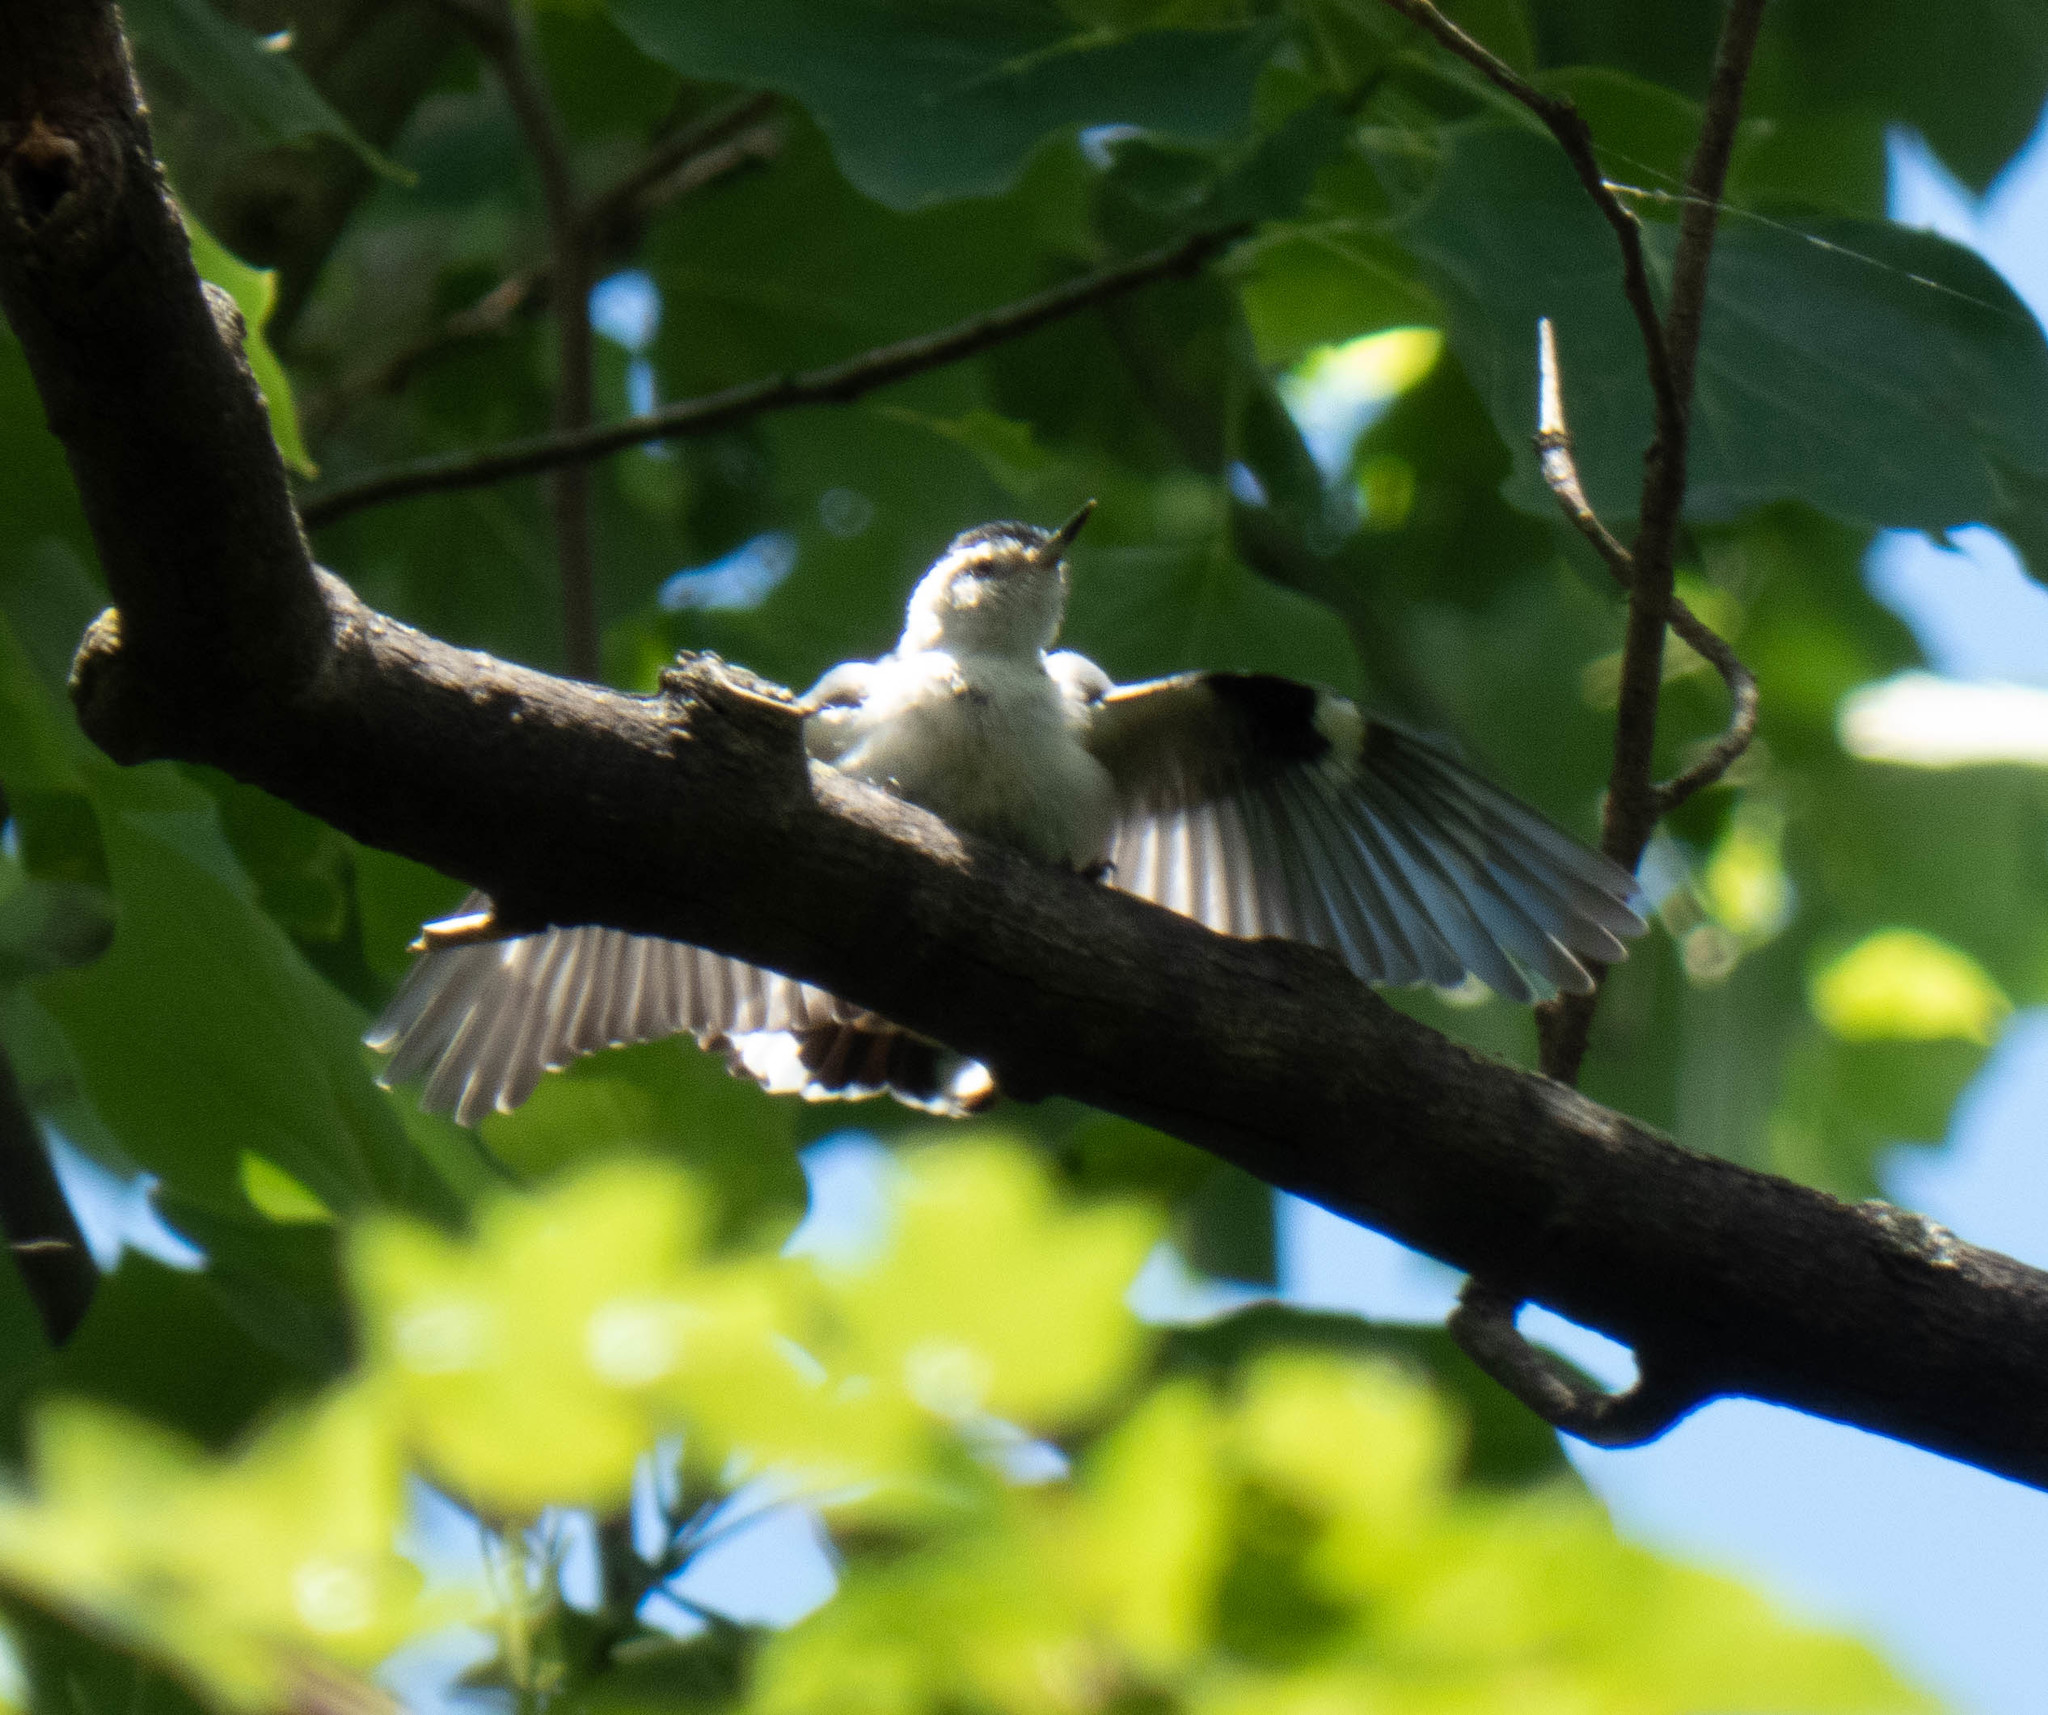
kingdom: Animalia
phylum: Chordata
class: Aves
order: Passeriformes
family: Sittidae
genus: Sitta
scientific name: Sitta carolinensis
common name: White-breasted nuthatch
